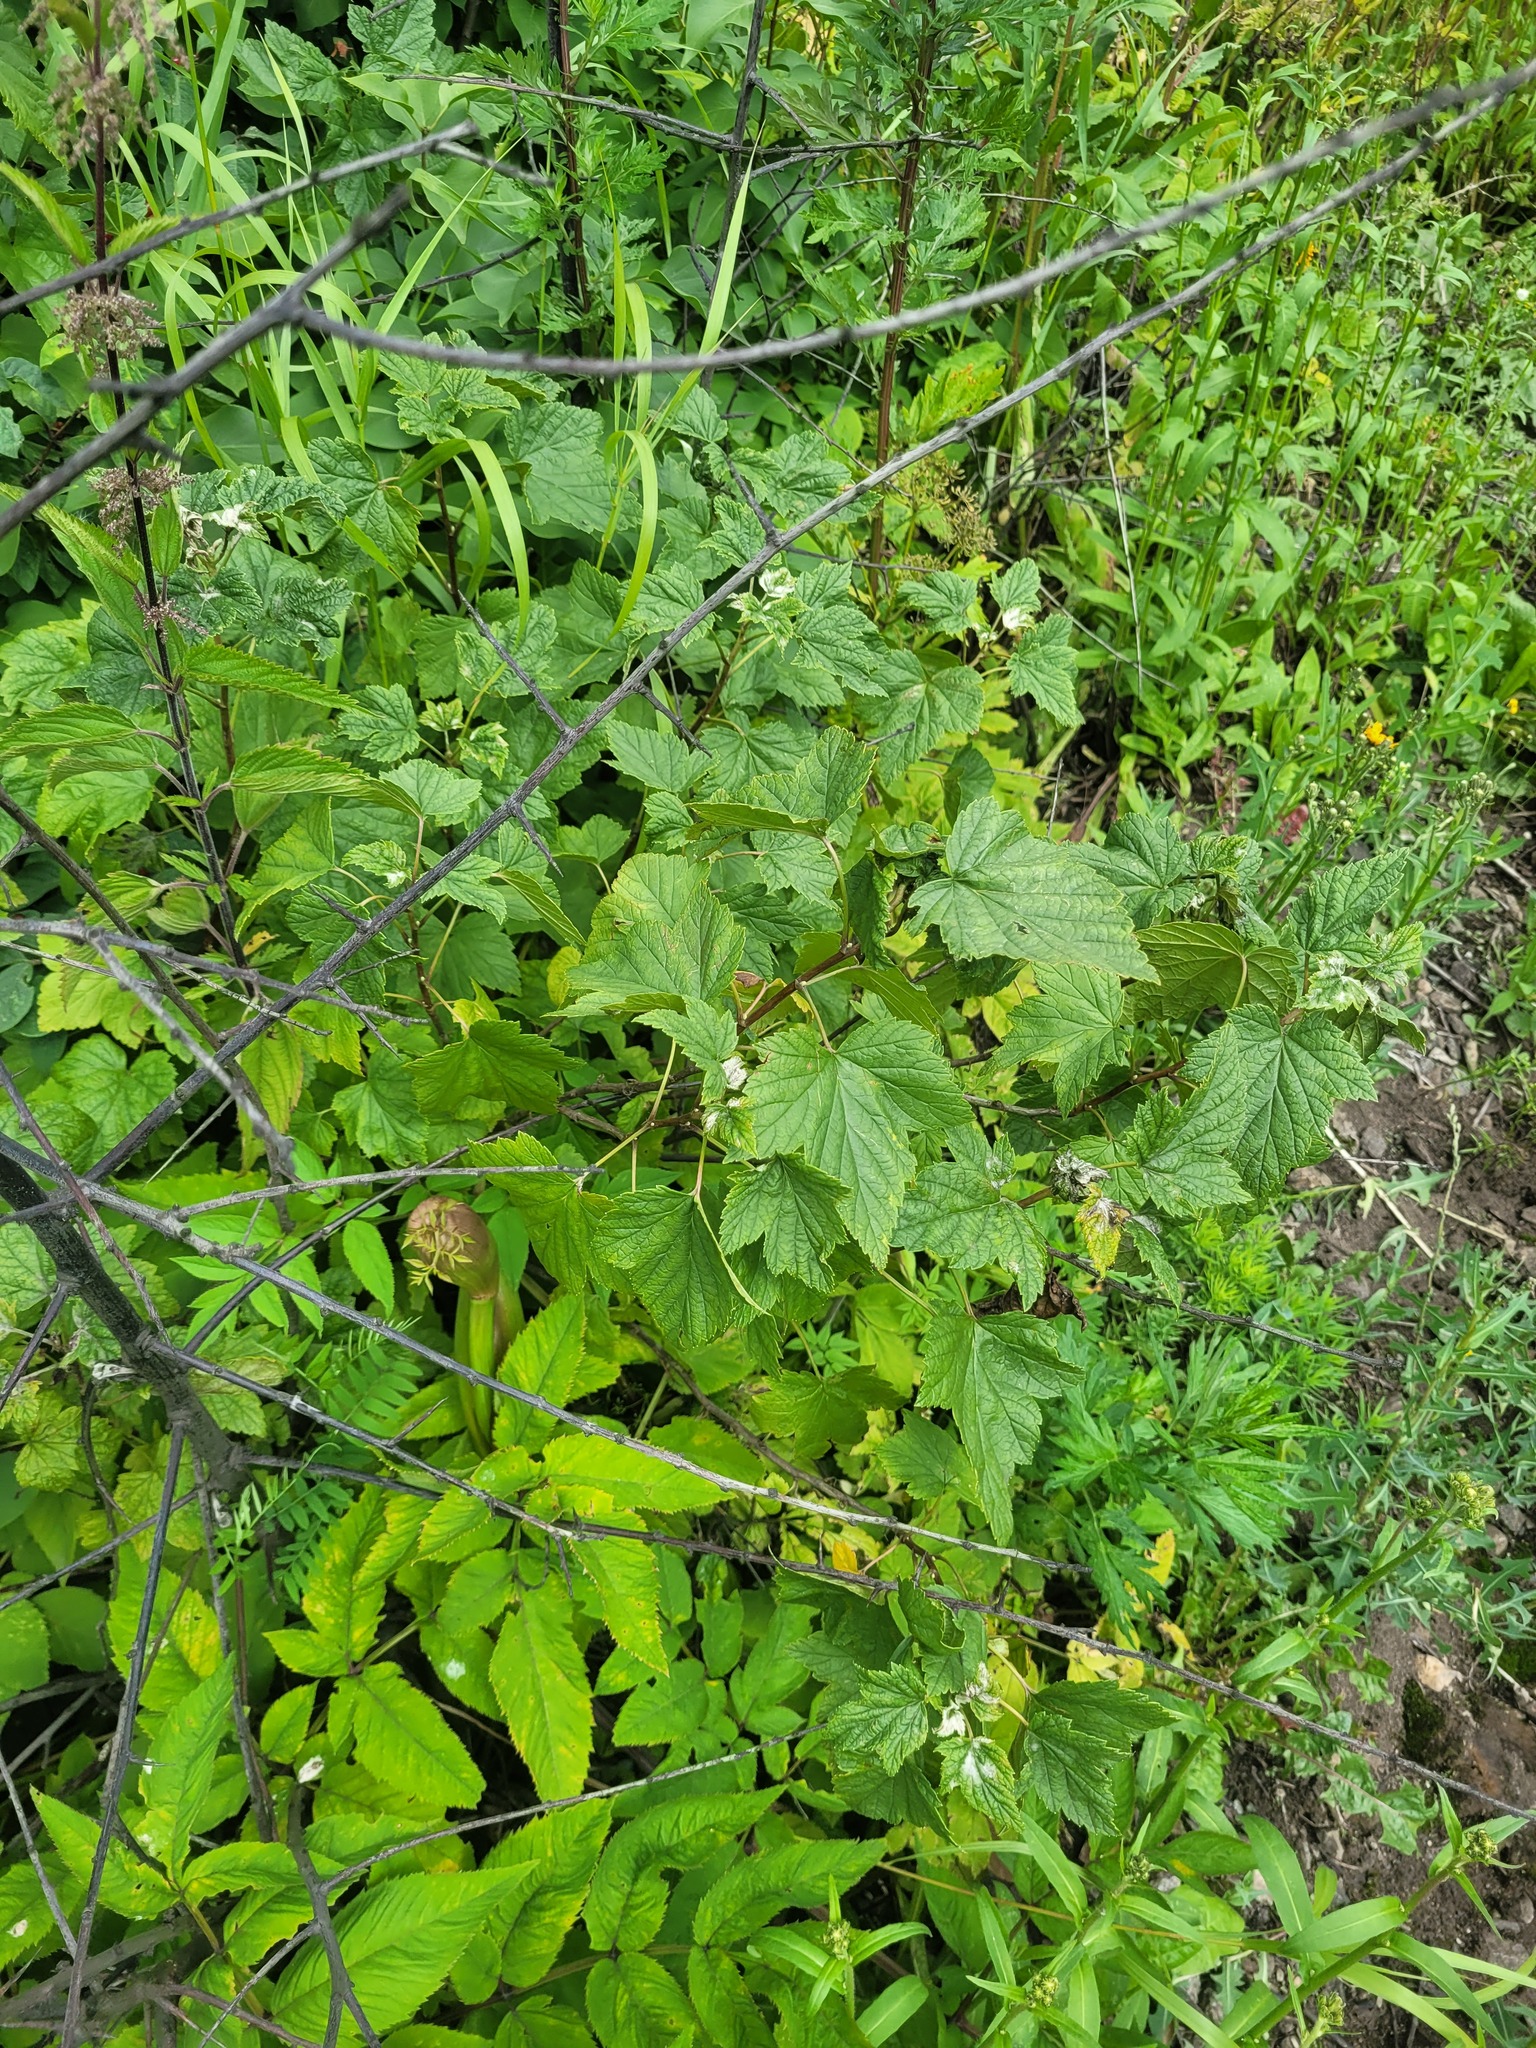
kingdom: Plantae
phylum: Tracheophyta
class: Magnoliopsida
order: Saxifragales
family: Grossulariaceae
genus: Ribes
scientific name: Ribes nigrum
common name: Black currant
